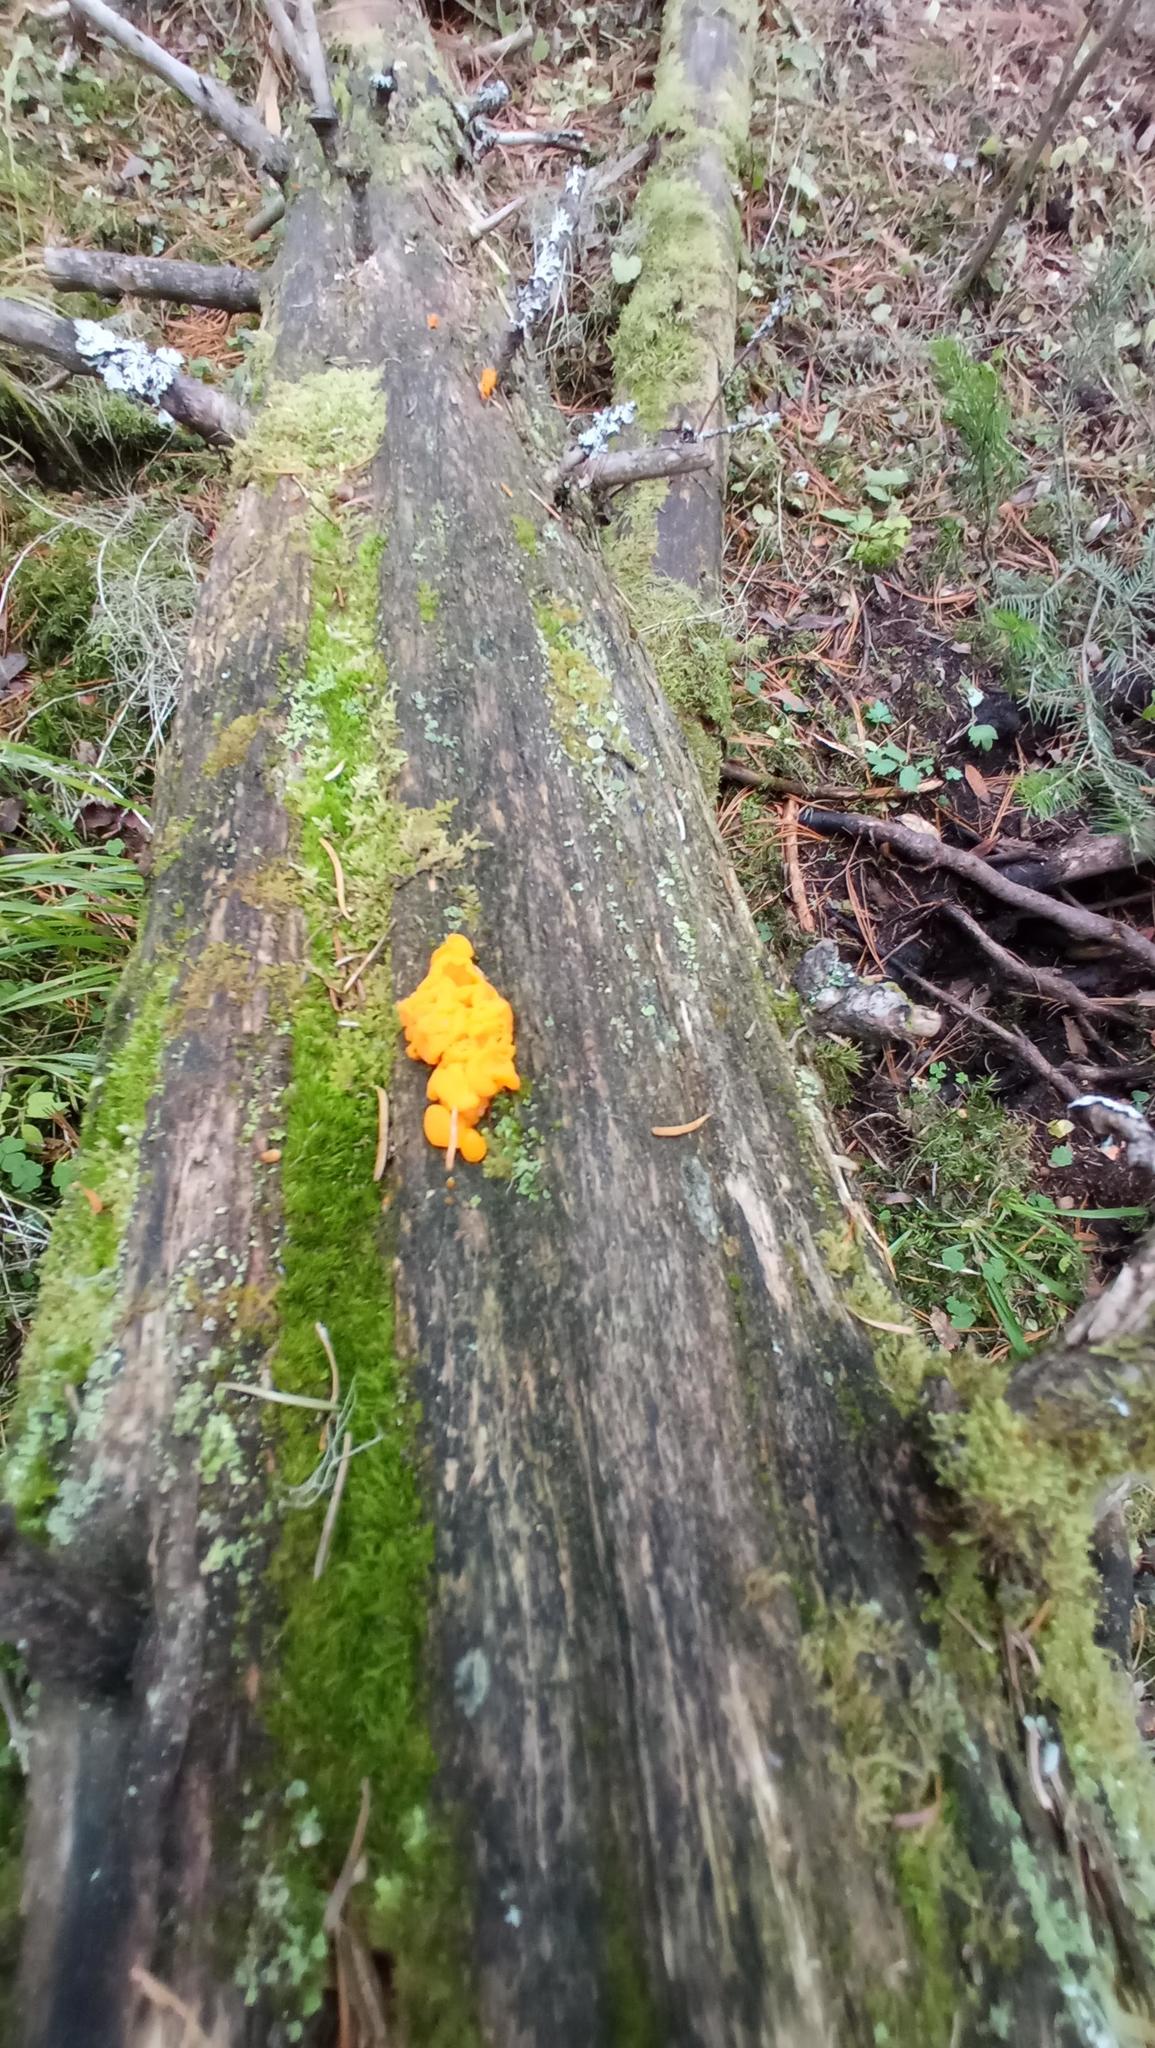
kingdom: Fungi
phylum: Basidiomycota
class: Dacrymycetes
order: Dacrymycetales
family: Dacrymycetaceae
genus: Dacrymyces
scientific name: Dacrymyces chrysospermus
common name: Orange jelly spot
